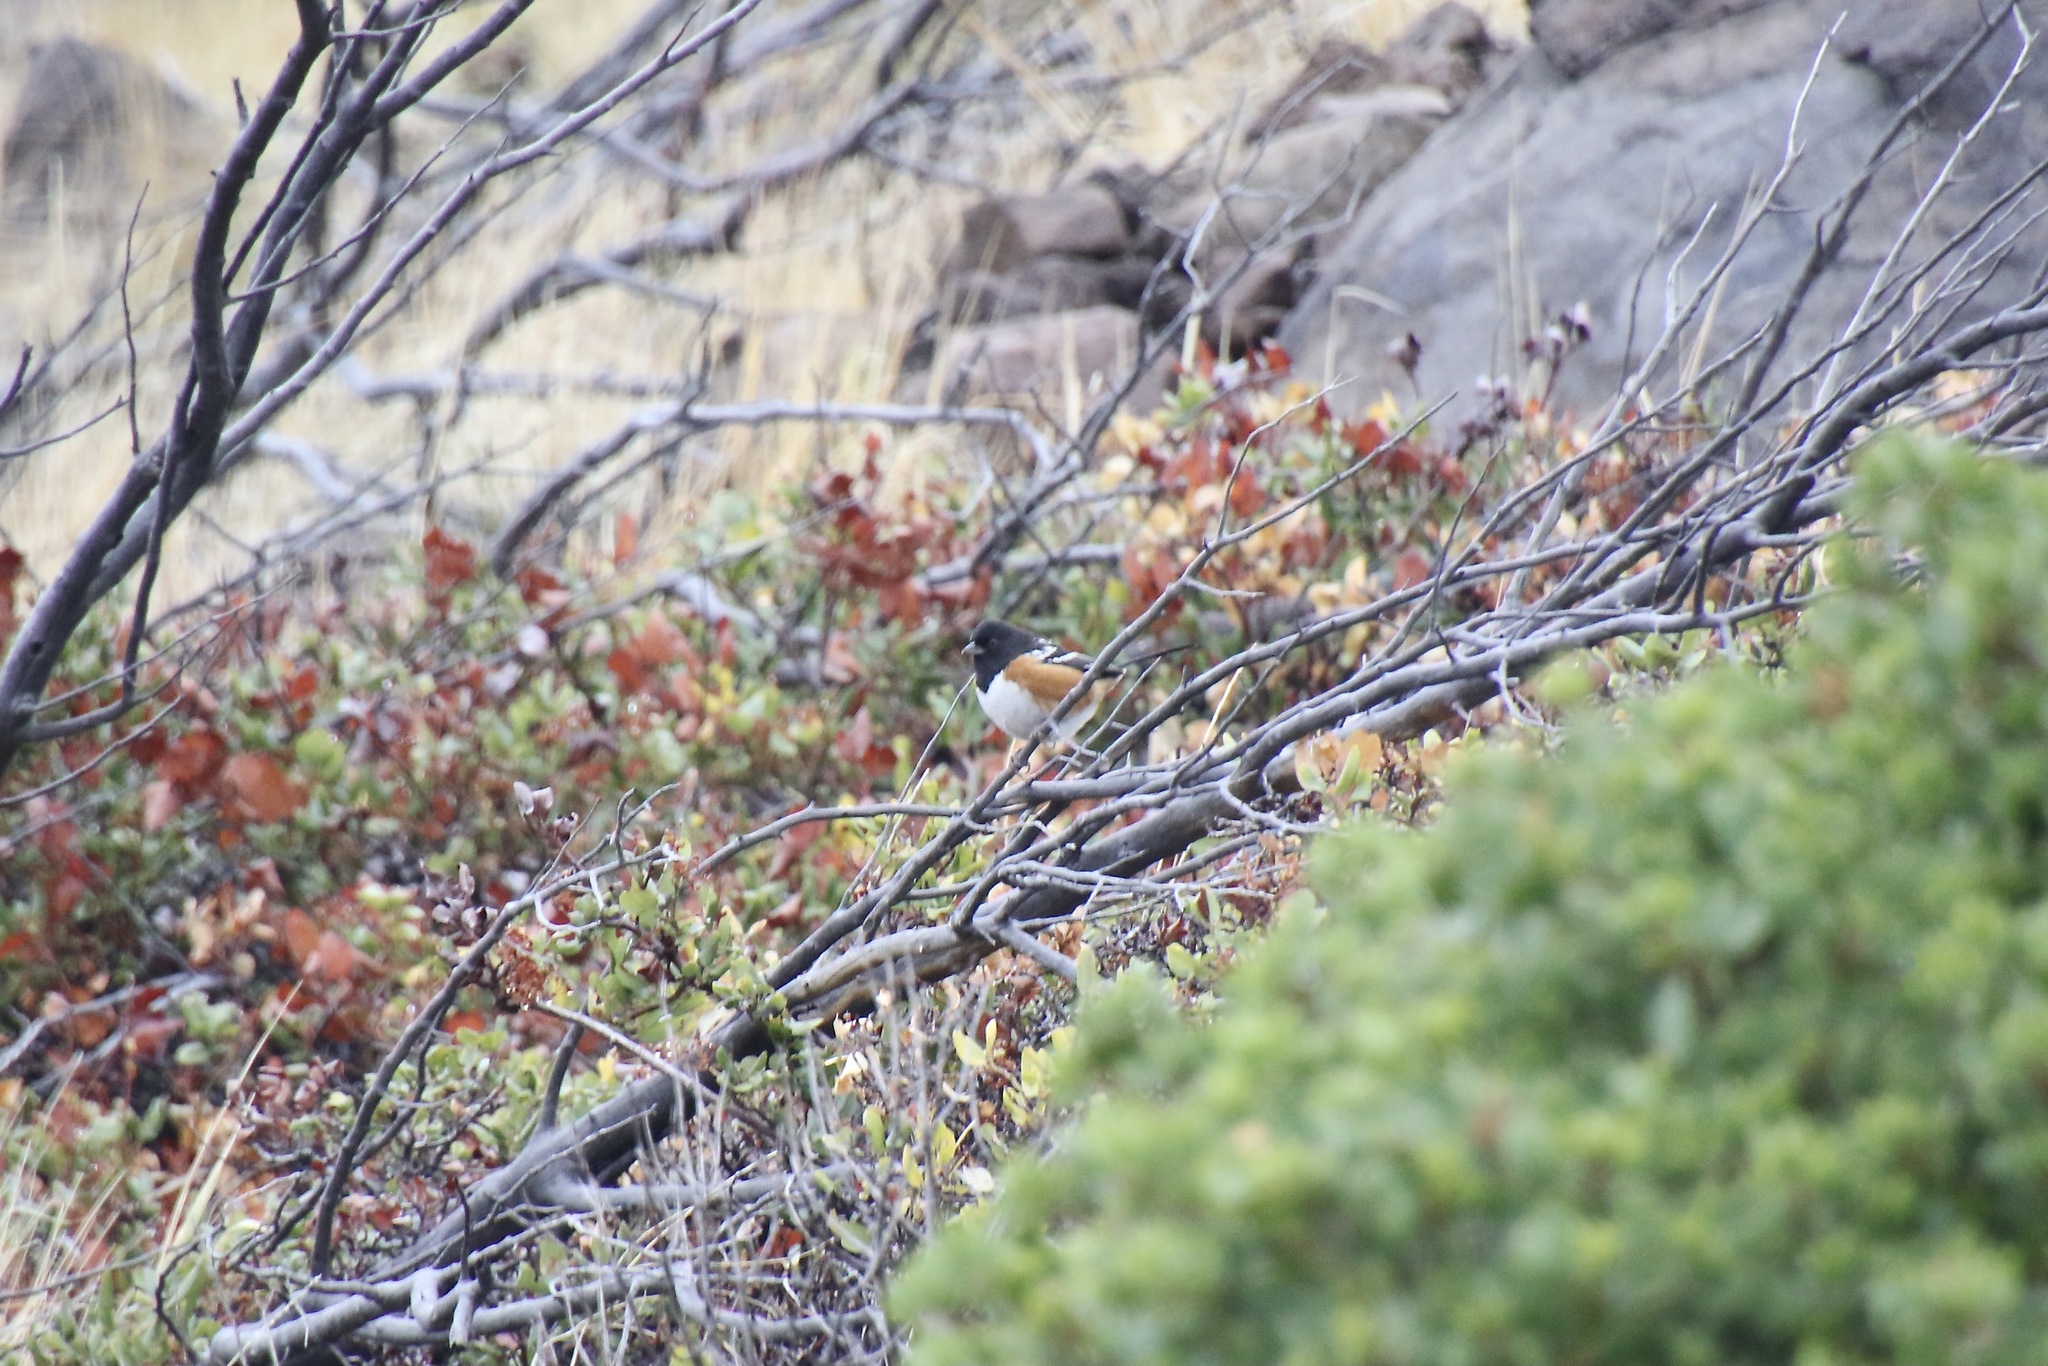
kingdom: Animalia
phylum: Chordata
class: Aves
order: Passeriformes
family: Passerellidae
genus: Pipilo
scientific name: Pipilo maculatus
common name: Spotted towhee
